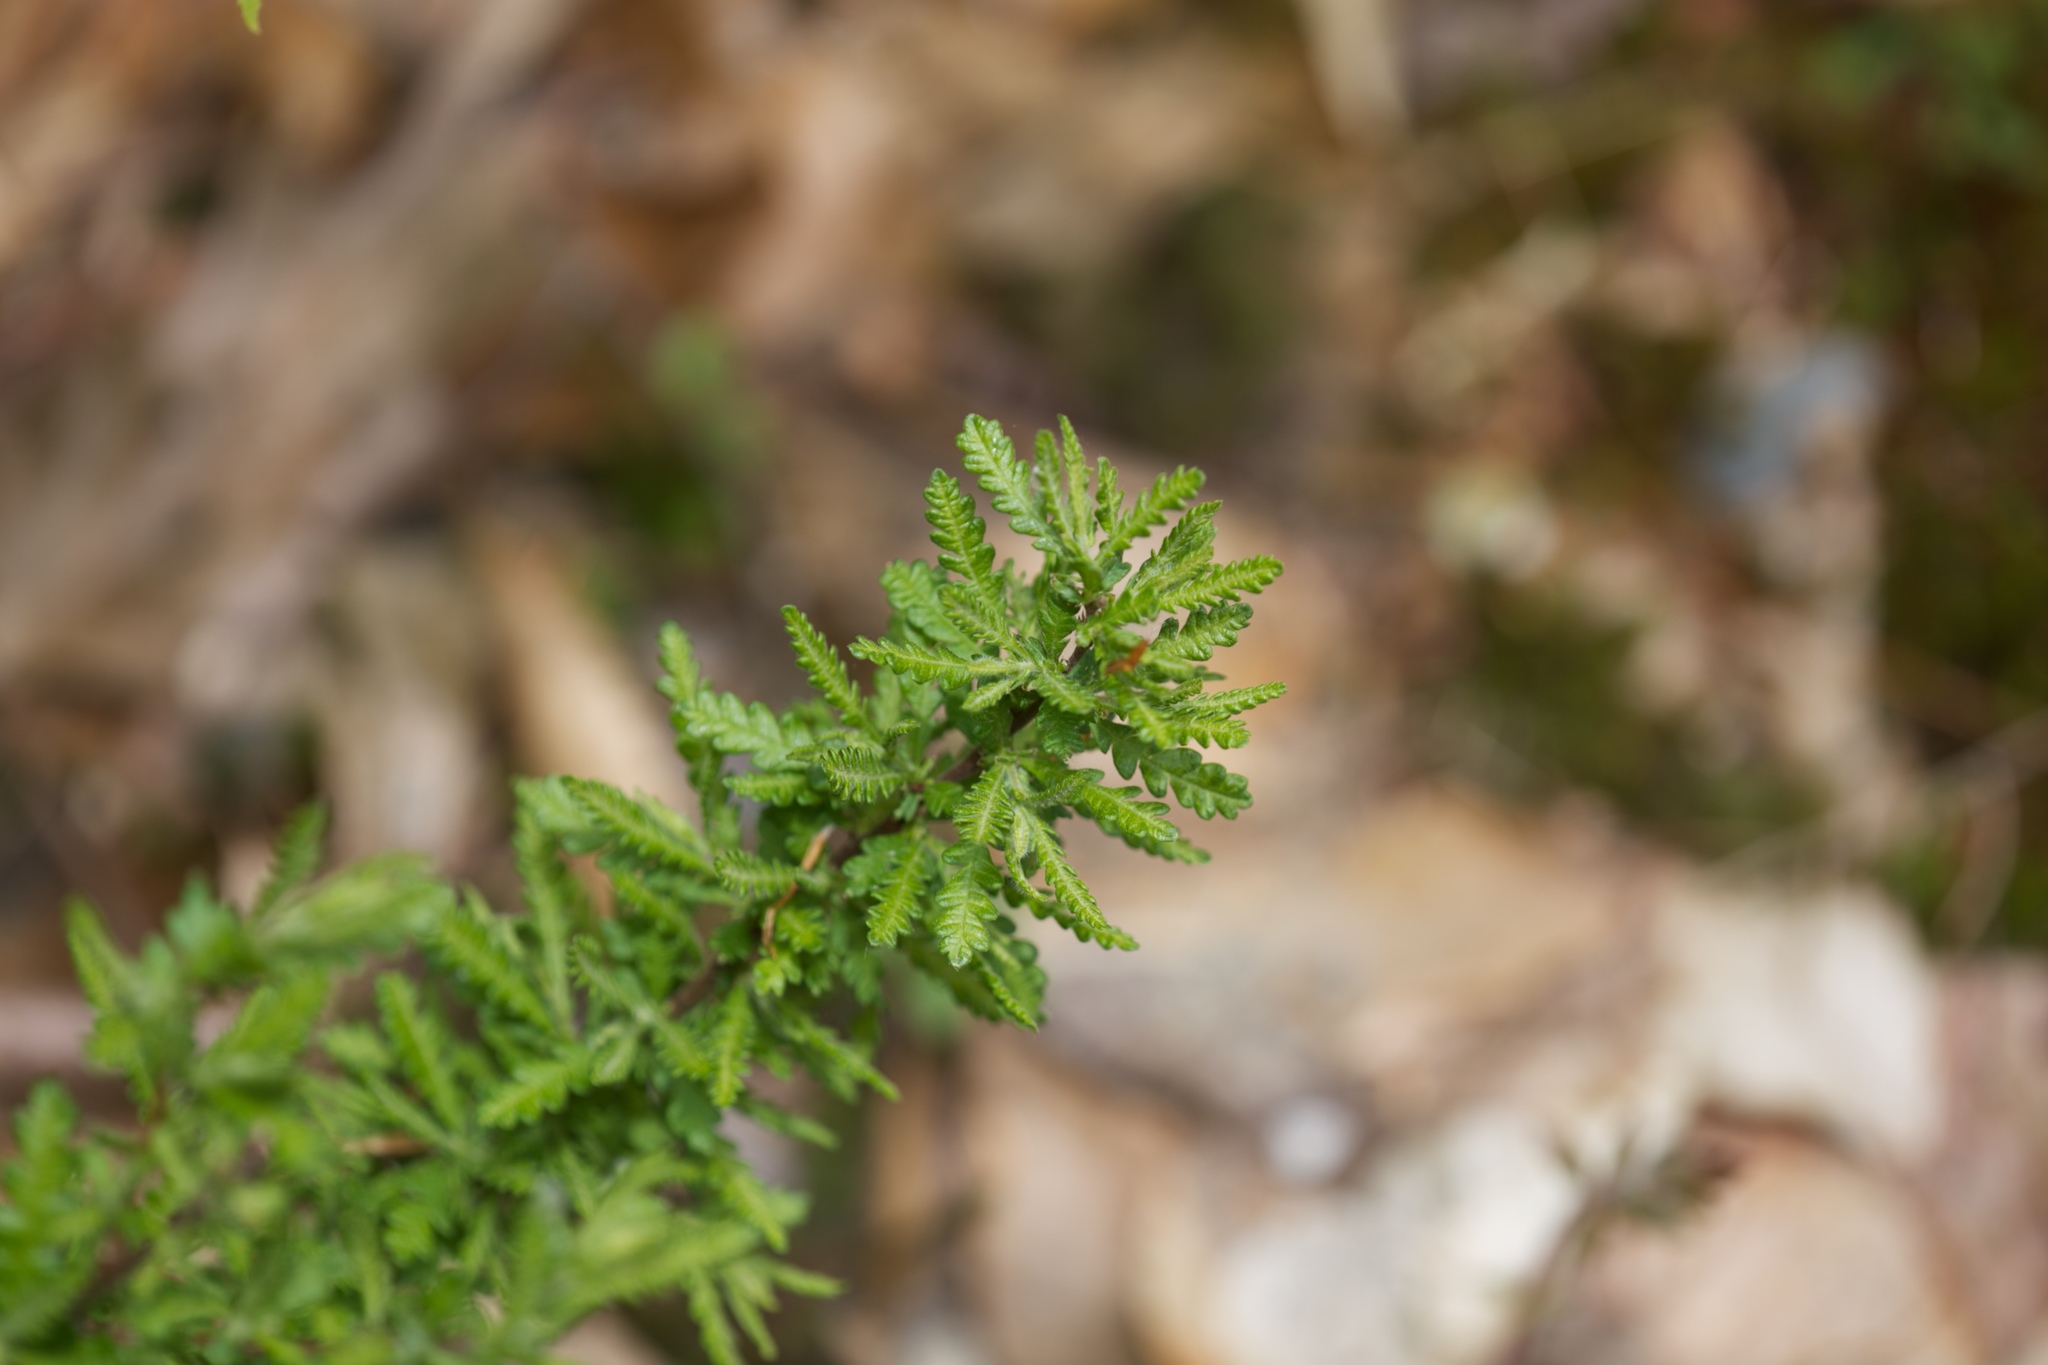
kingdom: Plantae
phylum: Tracheophyta
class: Magnoliopsida
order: Fagales
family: Myricaceae
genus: Comptonia
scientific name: Comptonia peregrina
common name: Sweet-fern
